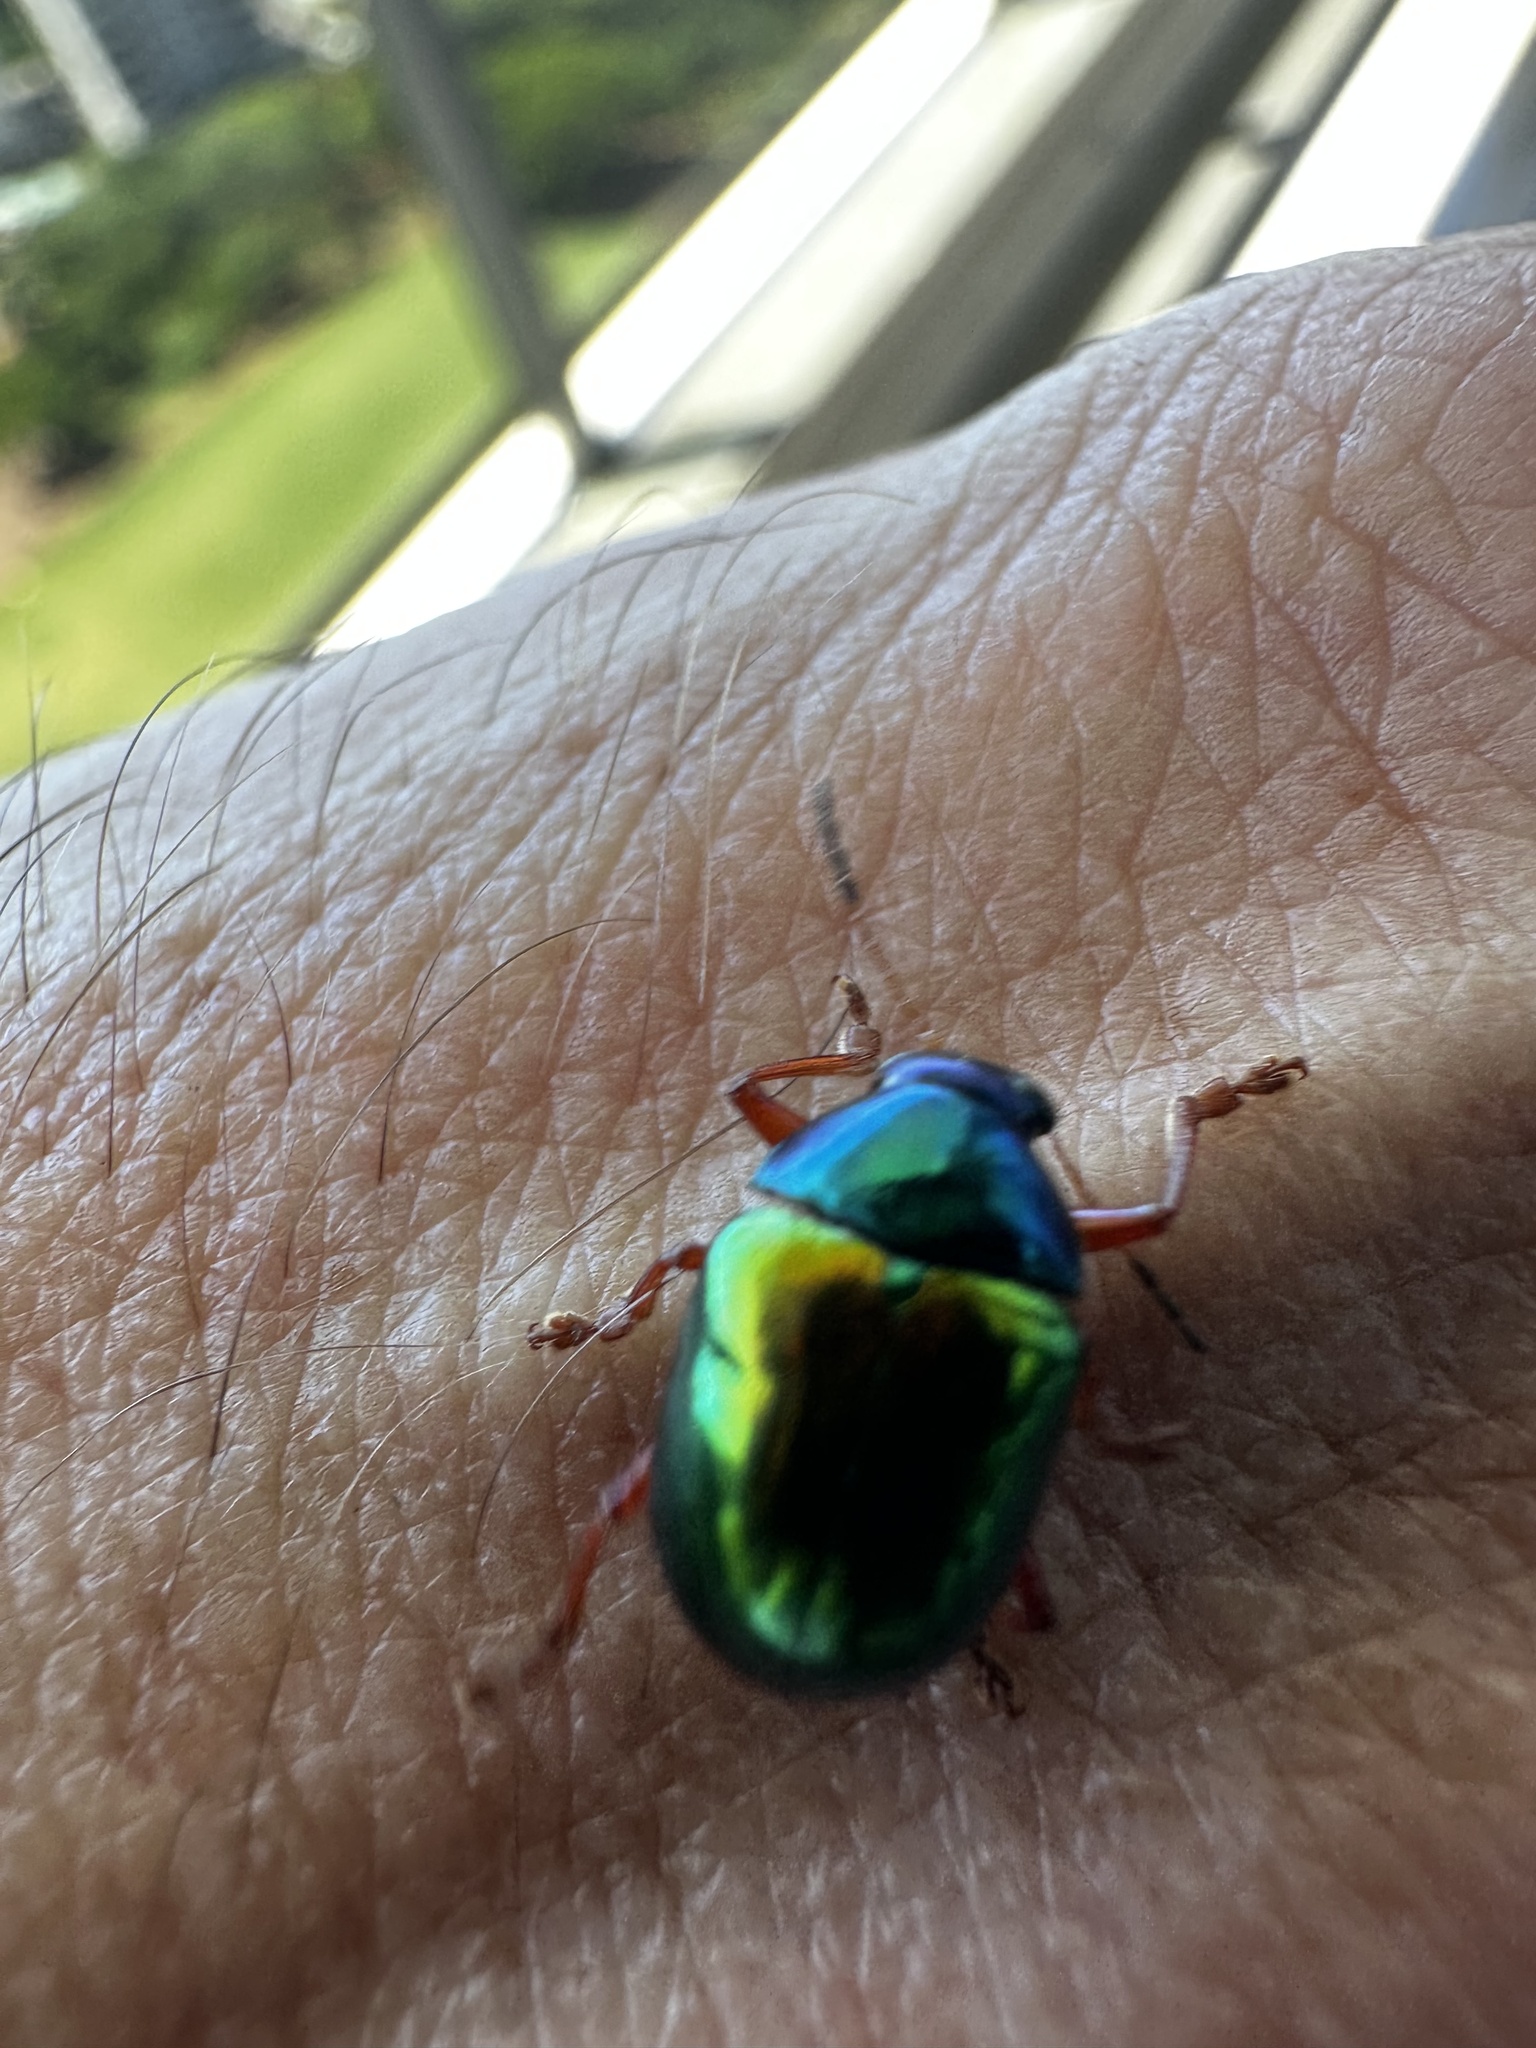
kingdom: Animalia
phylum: Arthropoda
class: Insecta
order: Coleoptera
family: Chrysomelidae
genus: Iphimeis
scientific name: Iphimeis
